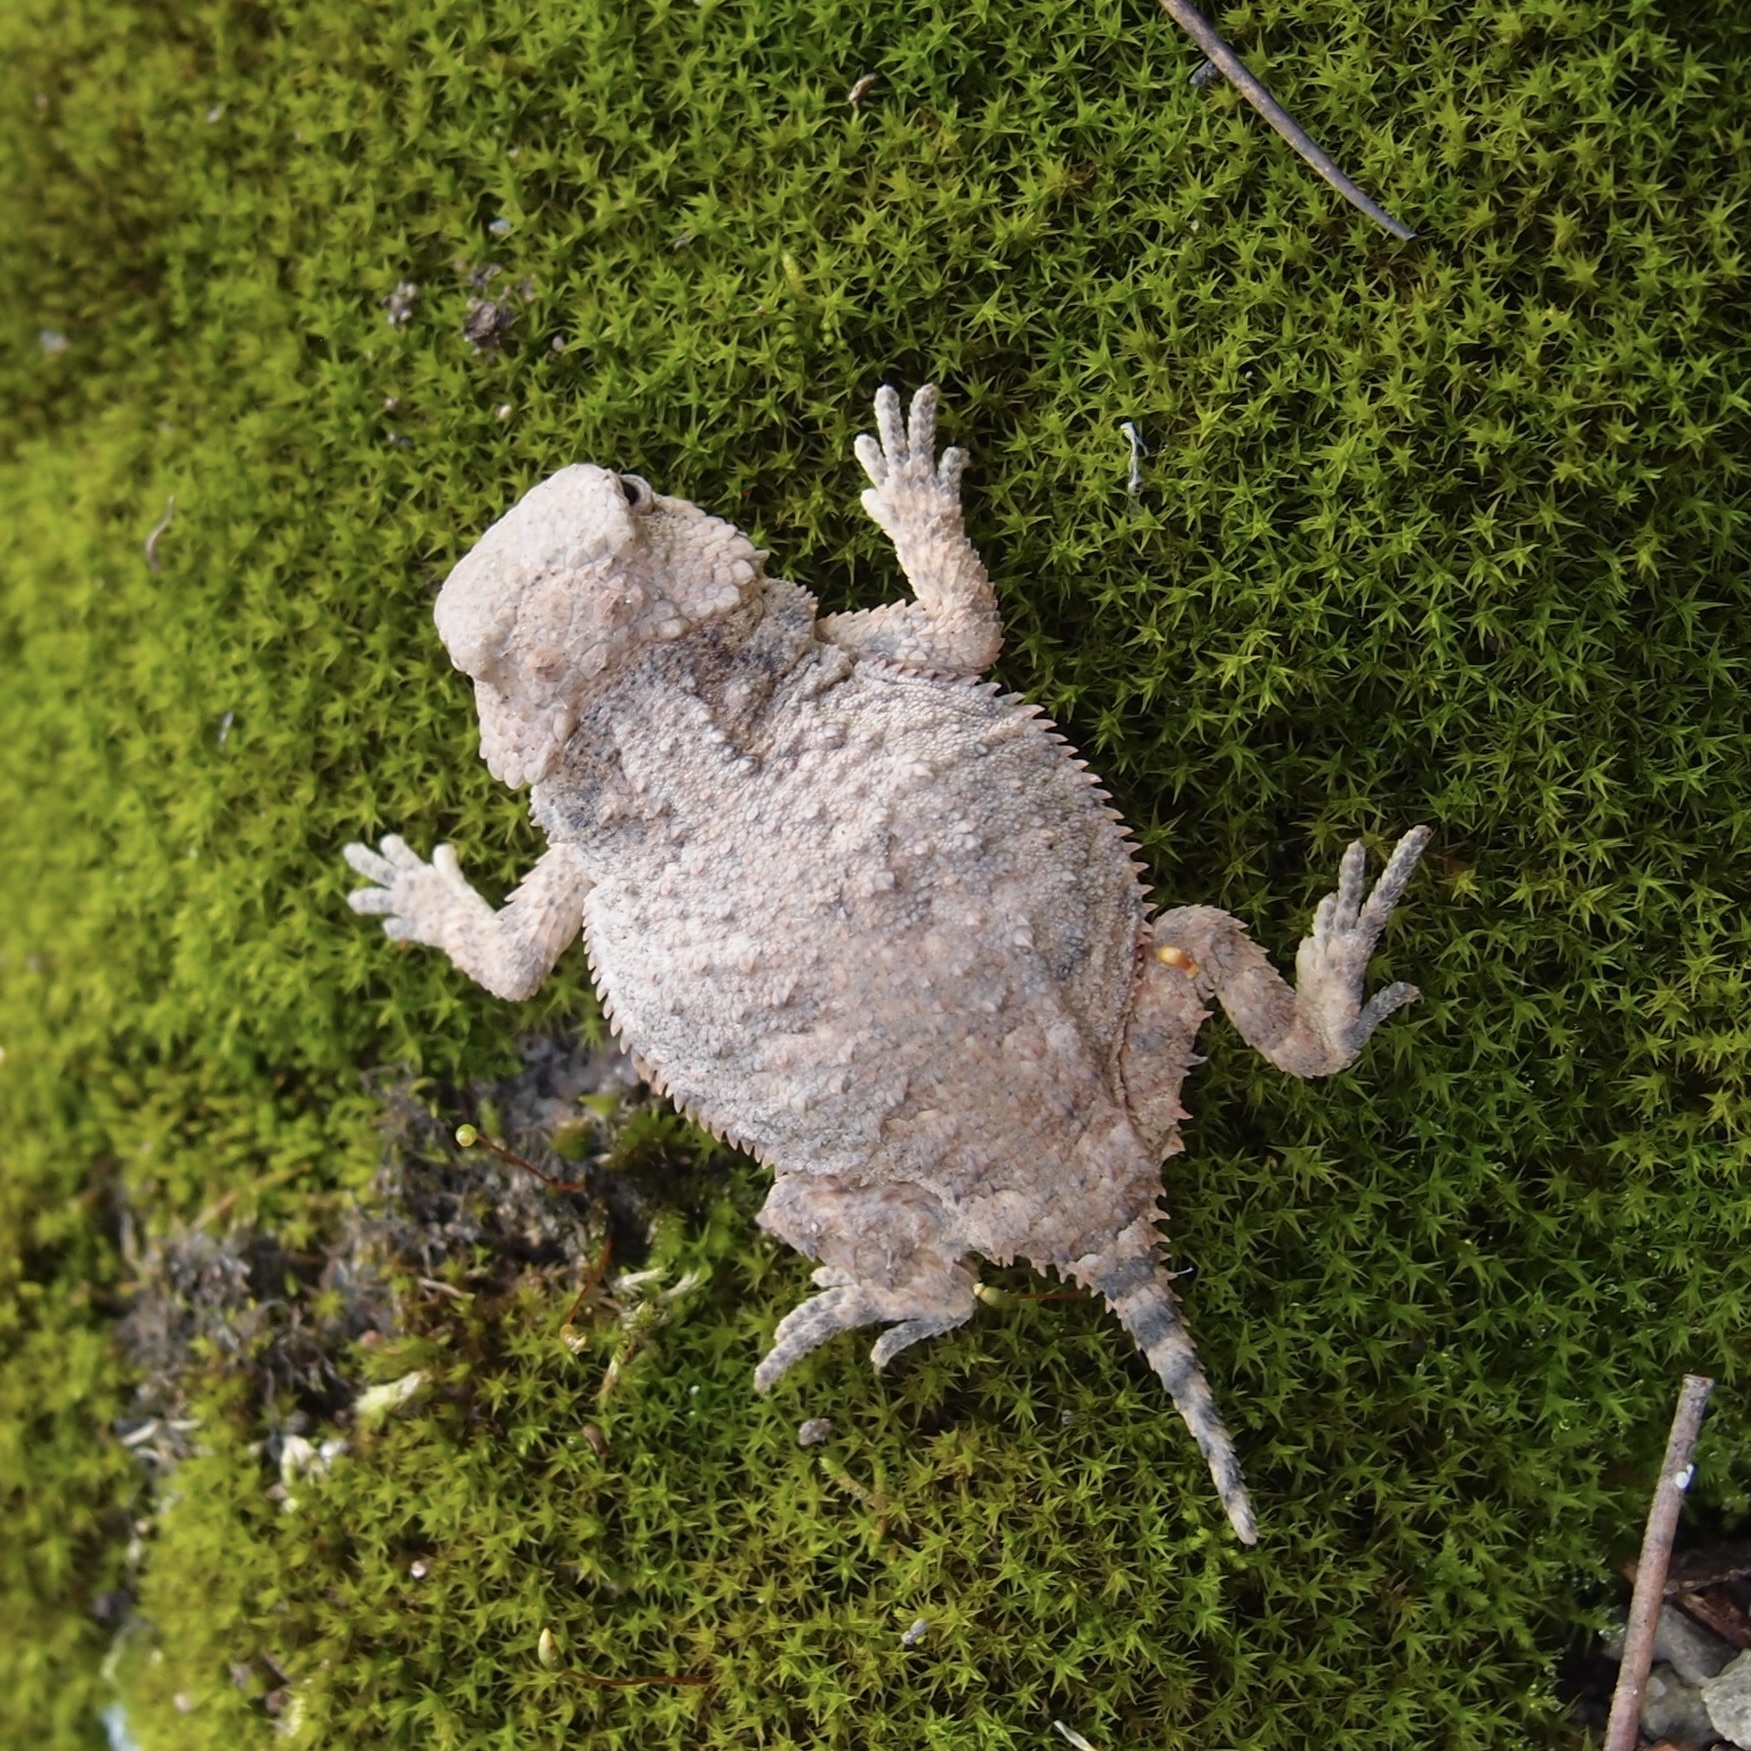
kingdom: Animalia
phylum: Chordata
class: Squamata
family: Phrynosomatidae
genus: Phrynosoma
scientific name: Phrynosoma hernandesi
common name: Greater short-horned lizard
